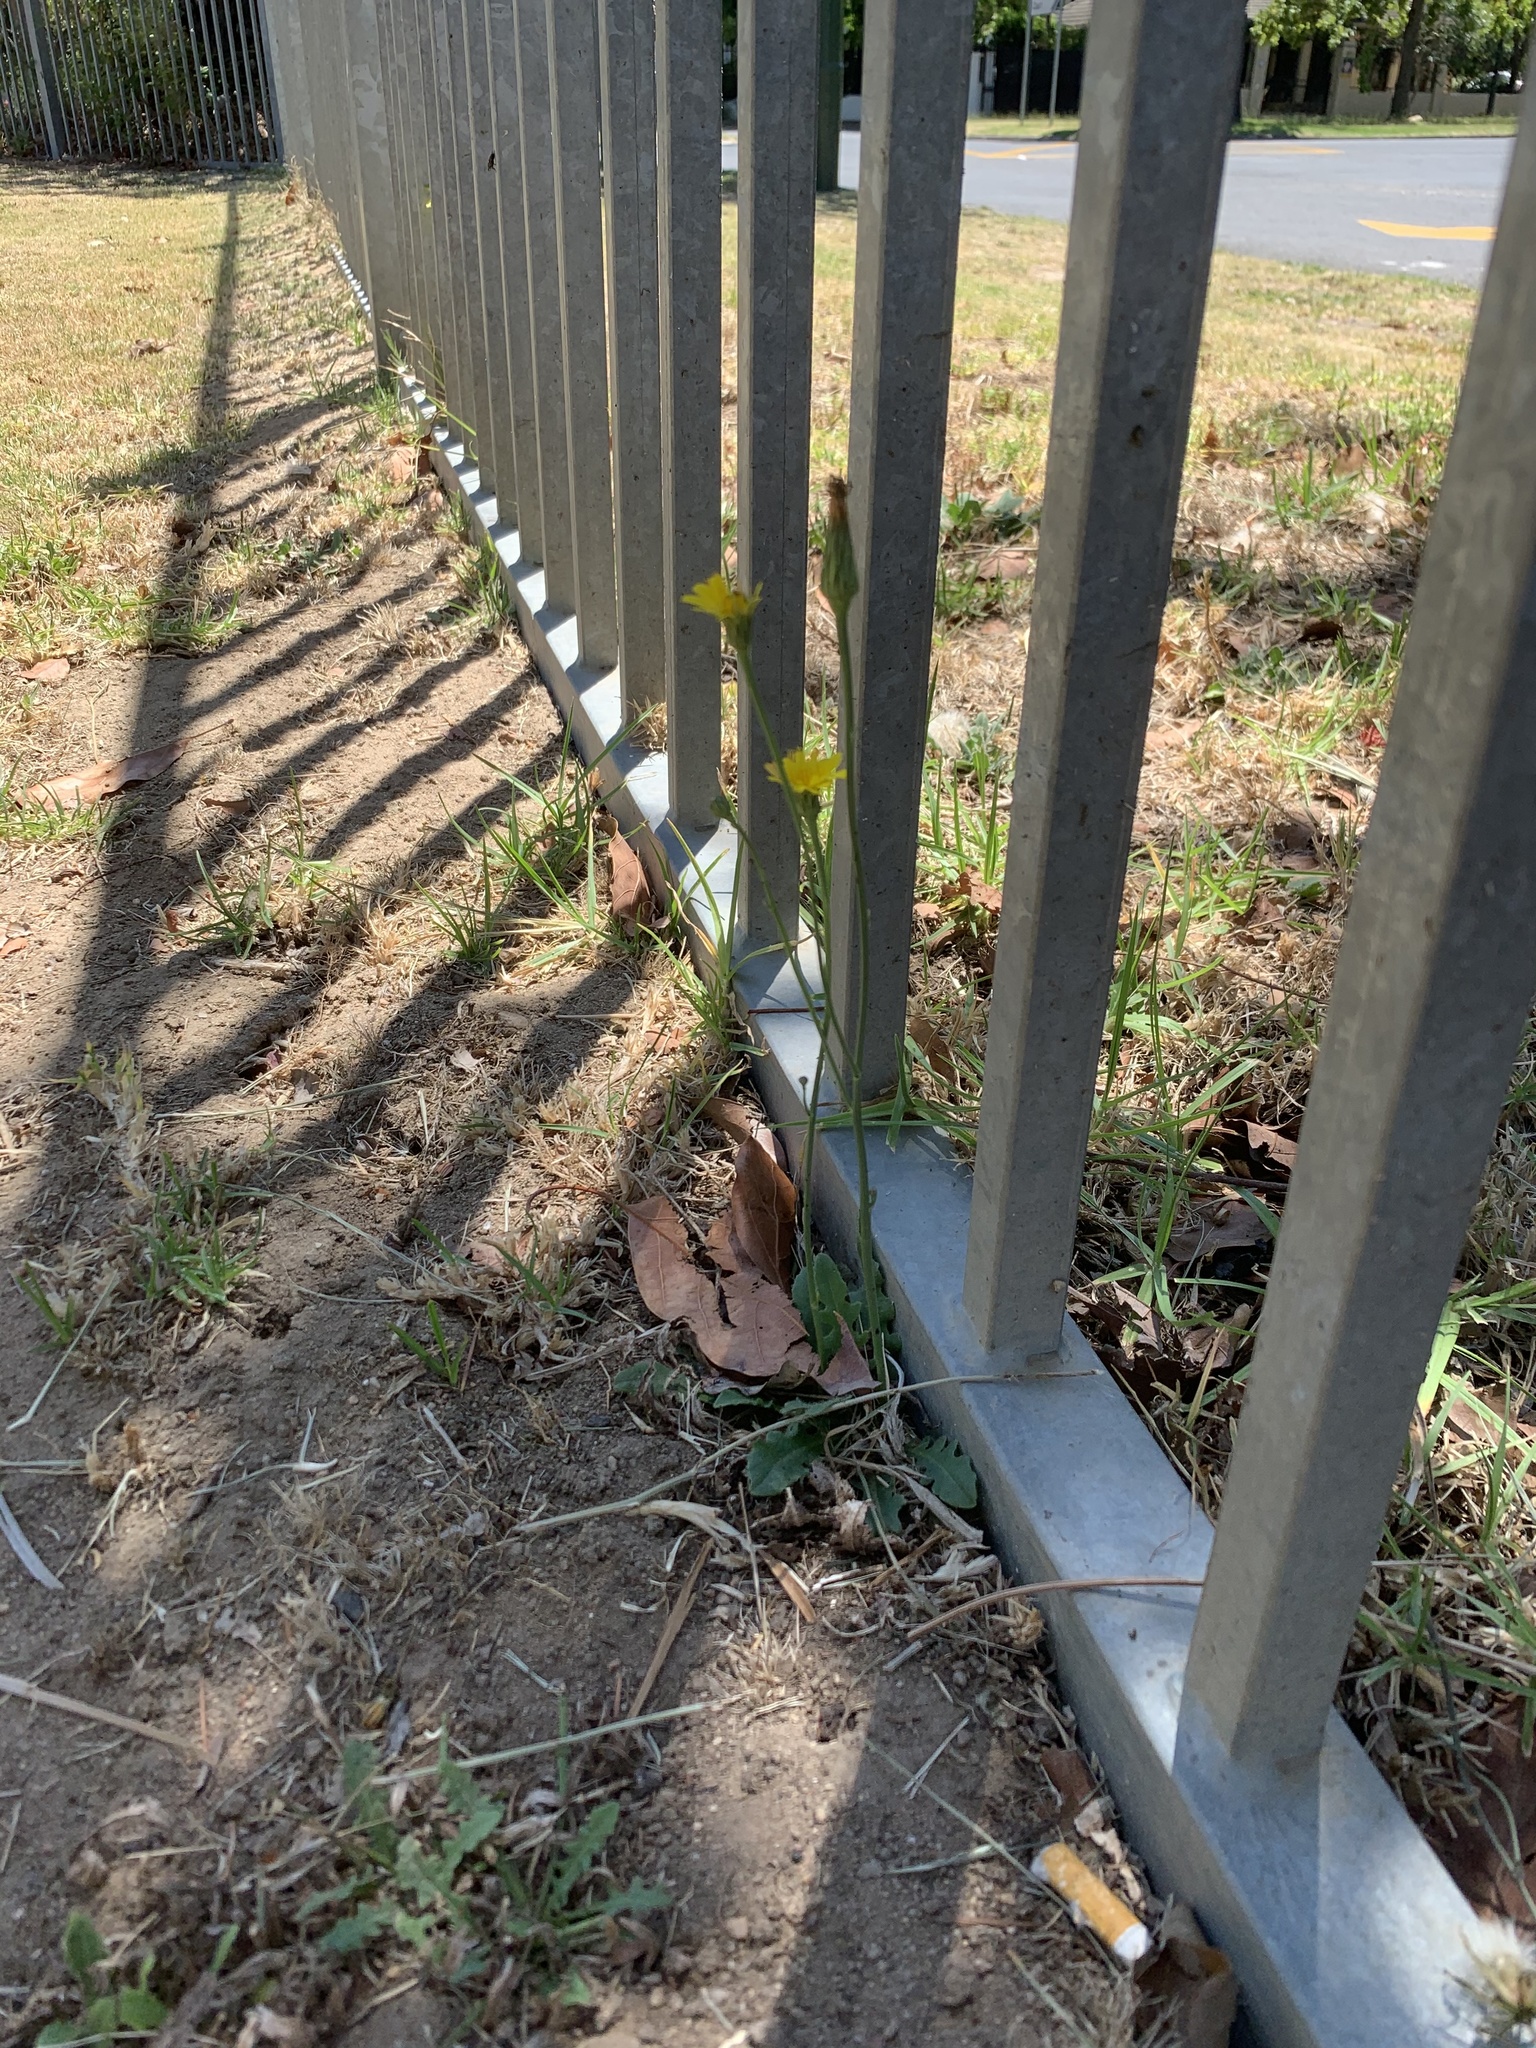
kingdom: Plantae
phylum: Tracheophyta
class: Magnoliopsida
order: Asterales
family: Asteraceae
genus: Hypochaeris
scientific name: Hypochaeris radicata
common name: Flatweed
